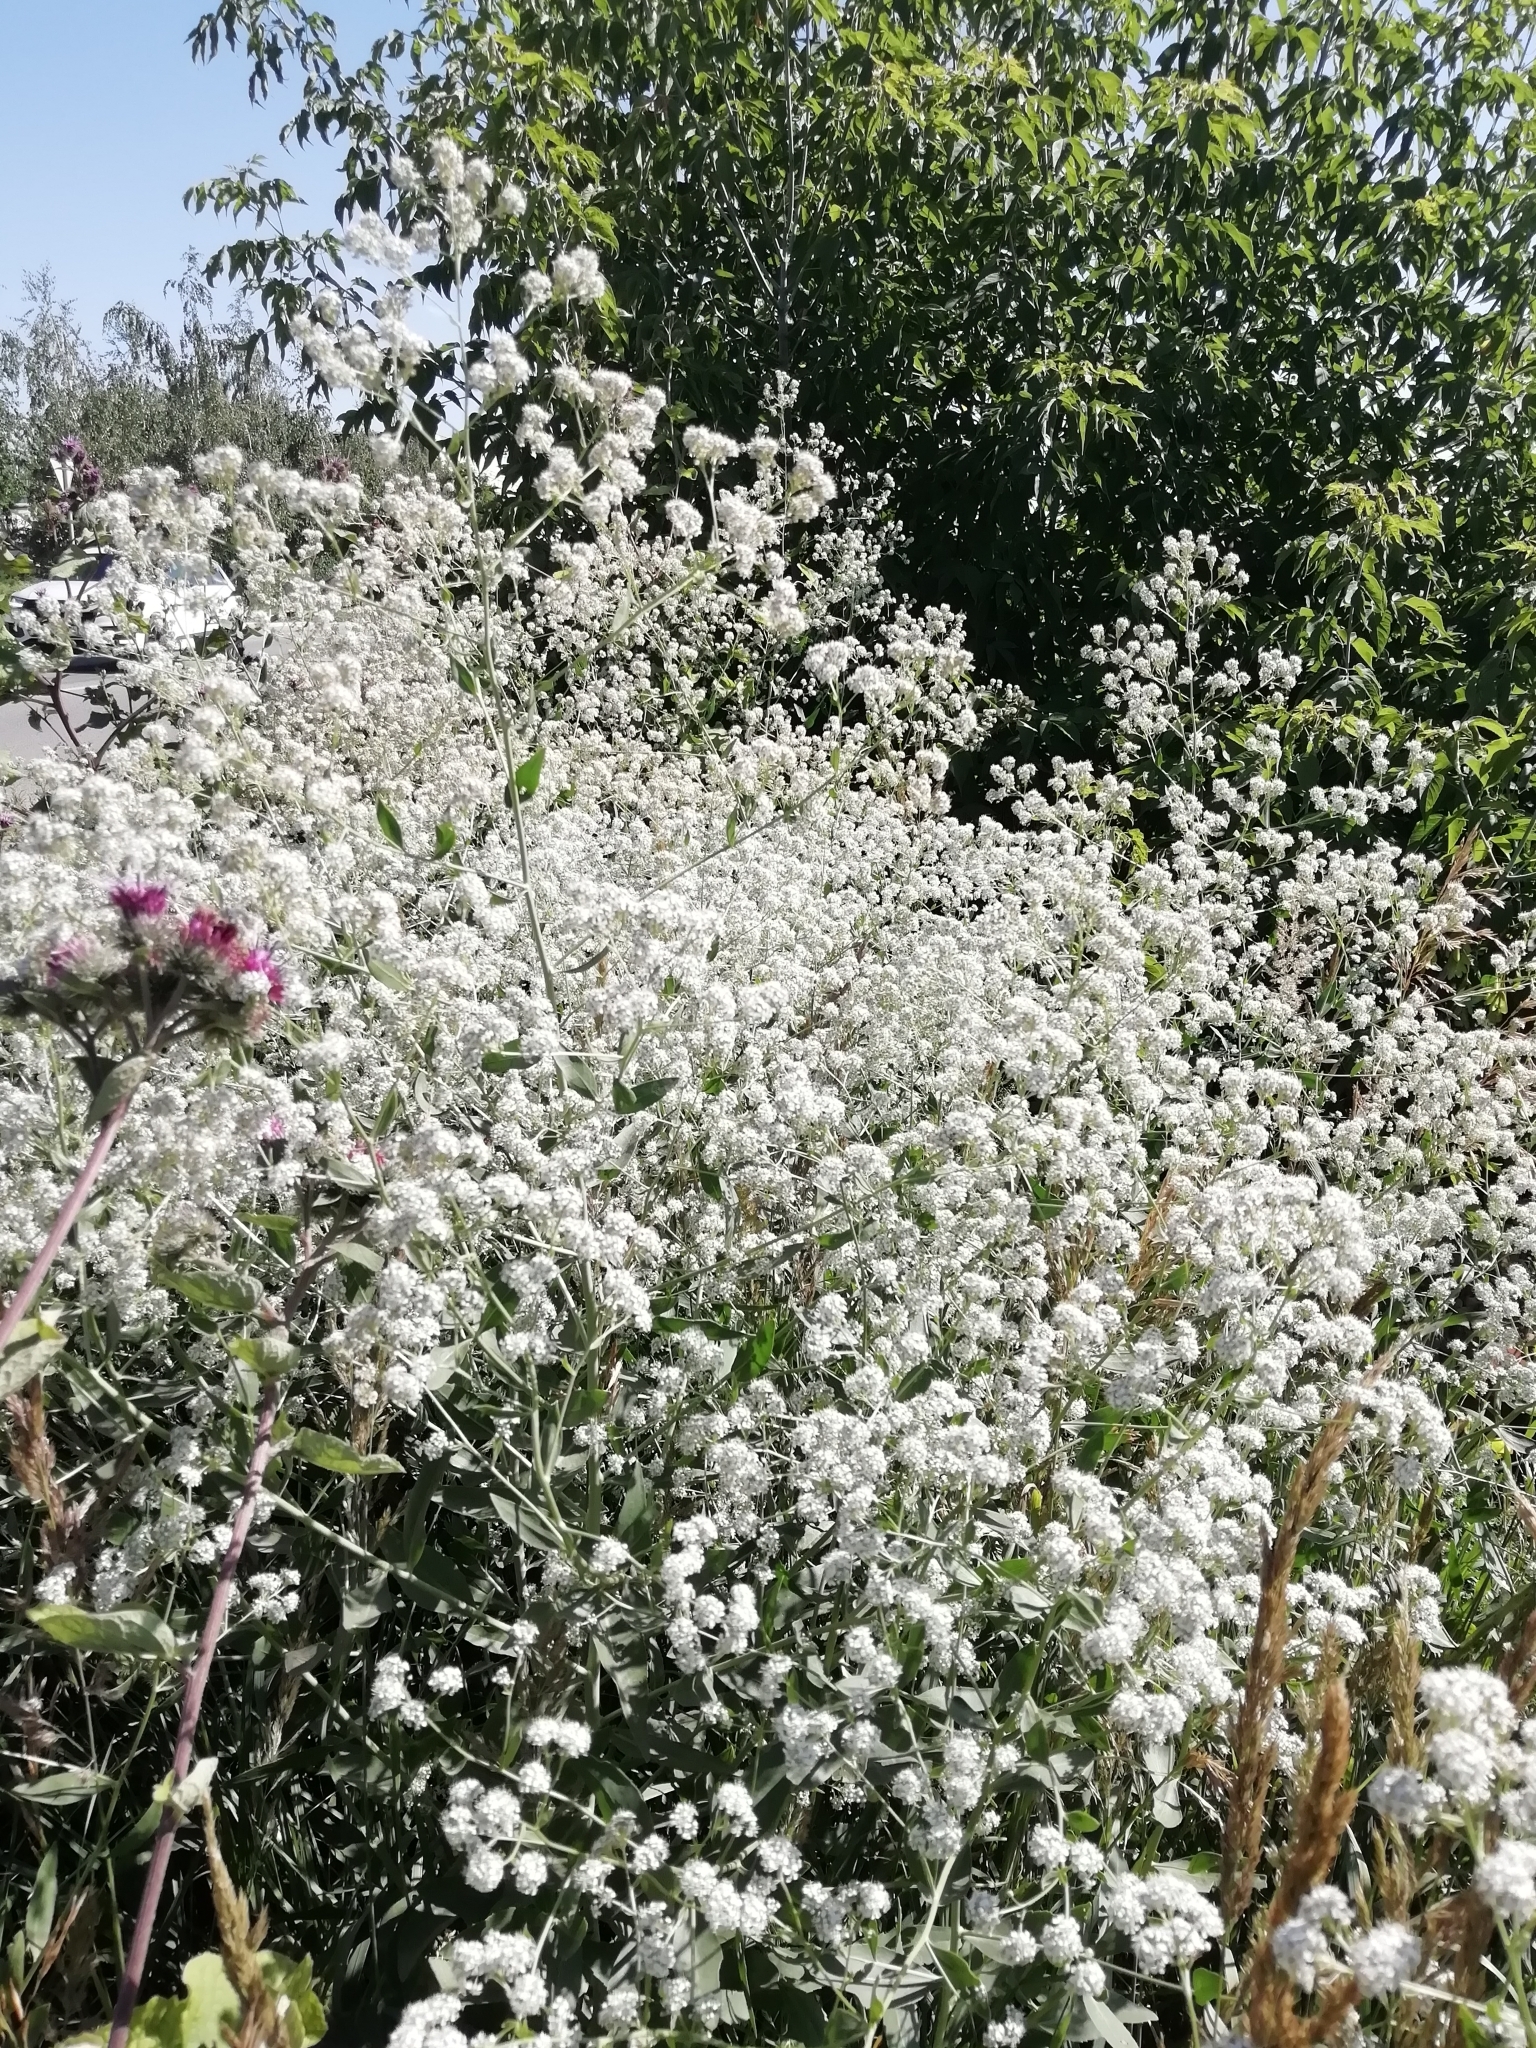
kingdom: Plantae
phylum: Tracheophyta
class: Magnoliopsida
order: Brassicales
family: Brassicaceae
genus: Lepidium
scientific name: Lepidium latifolium
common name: Dittander
